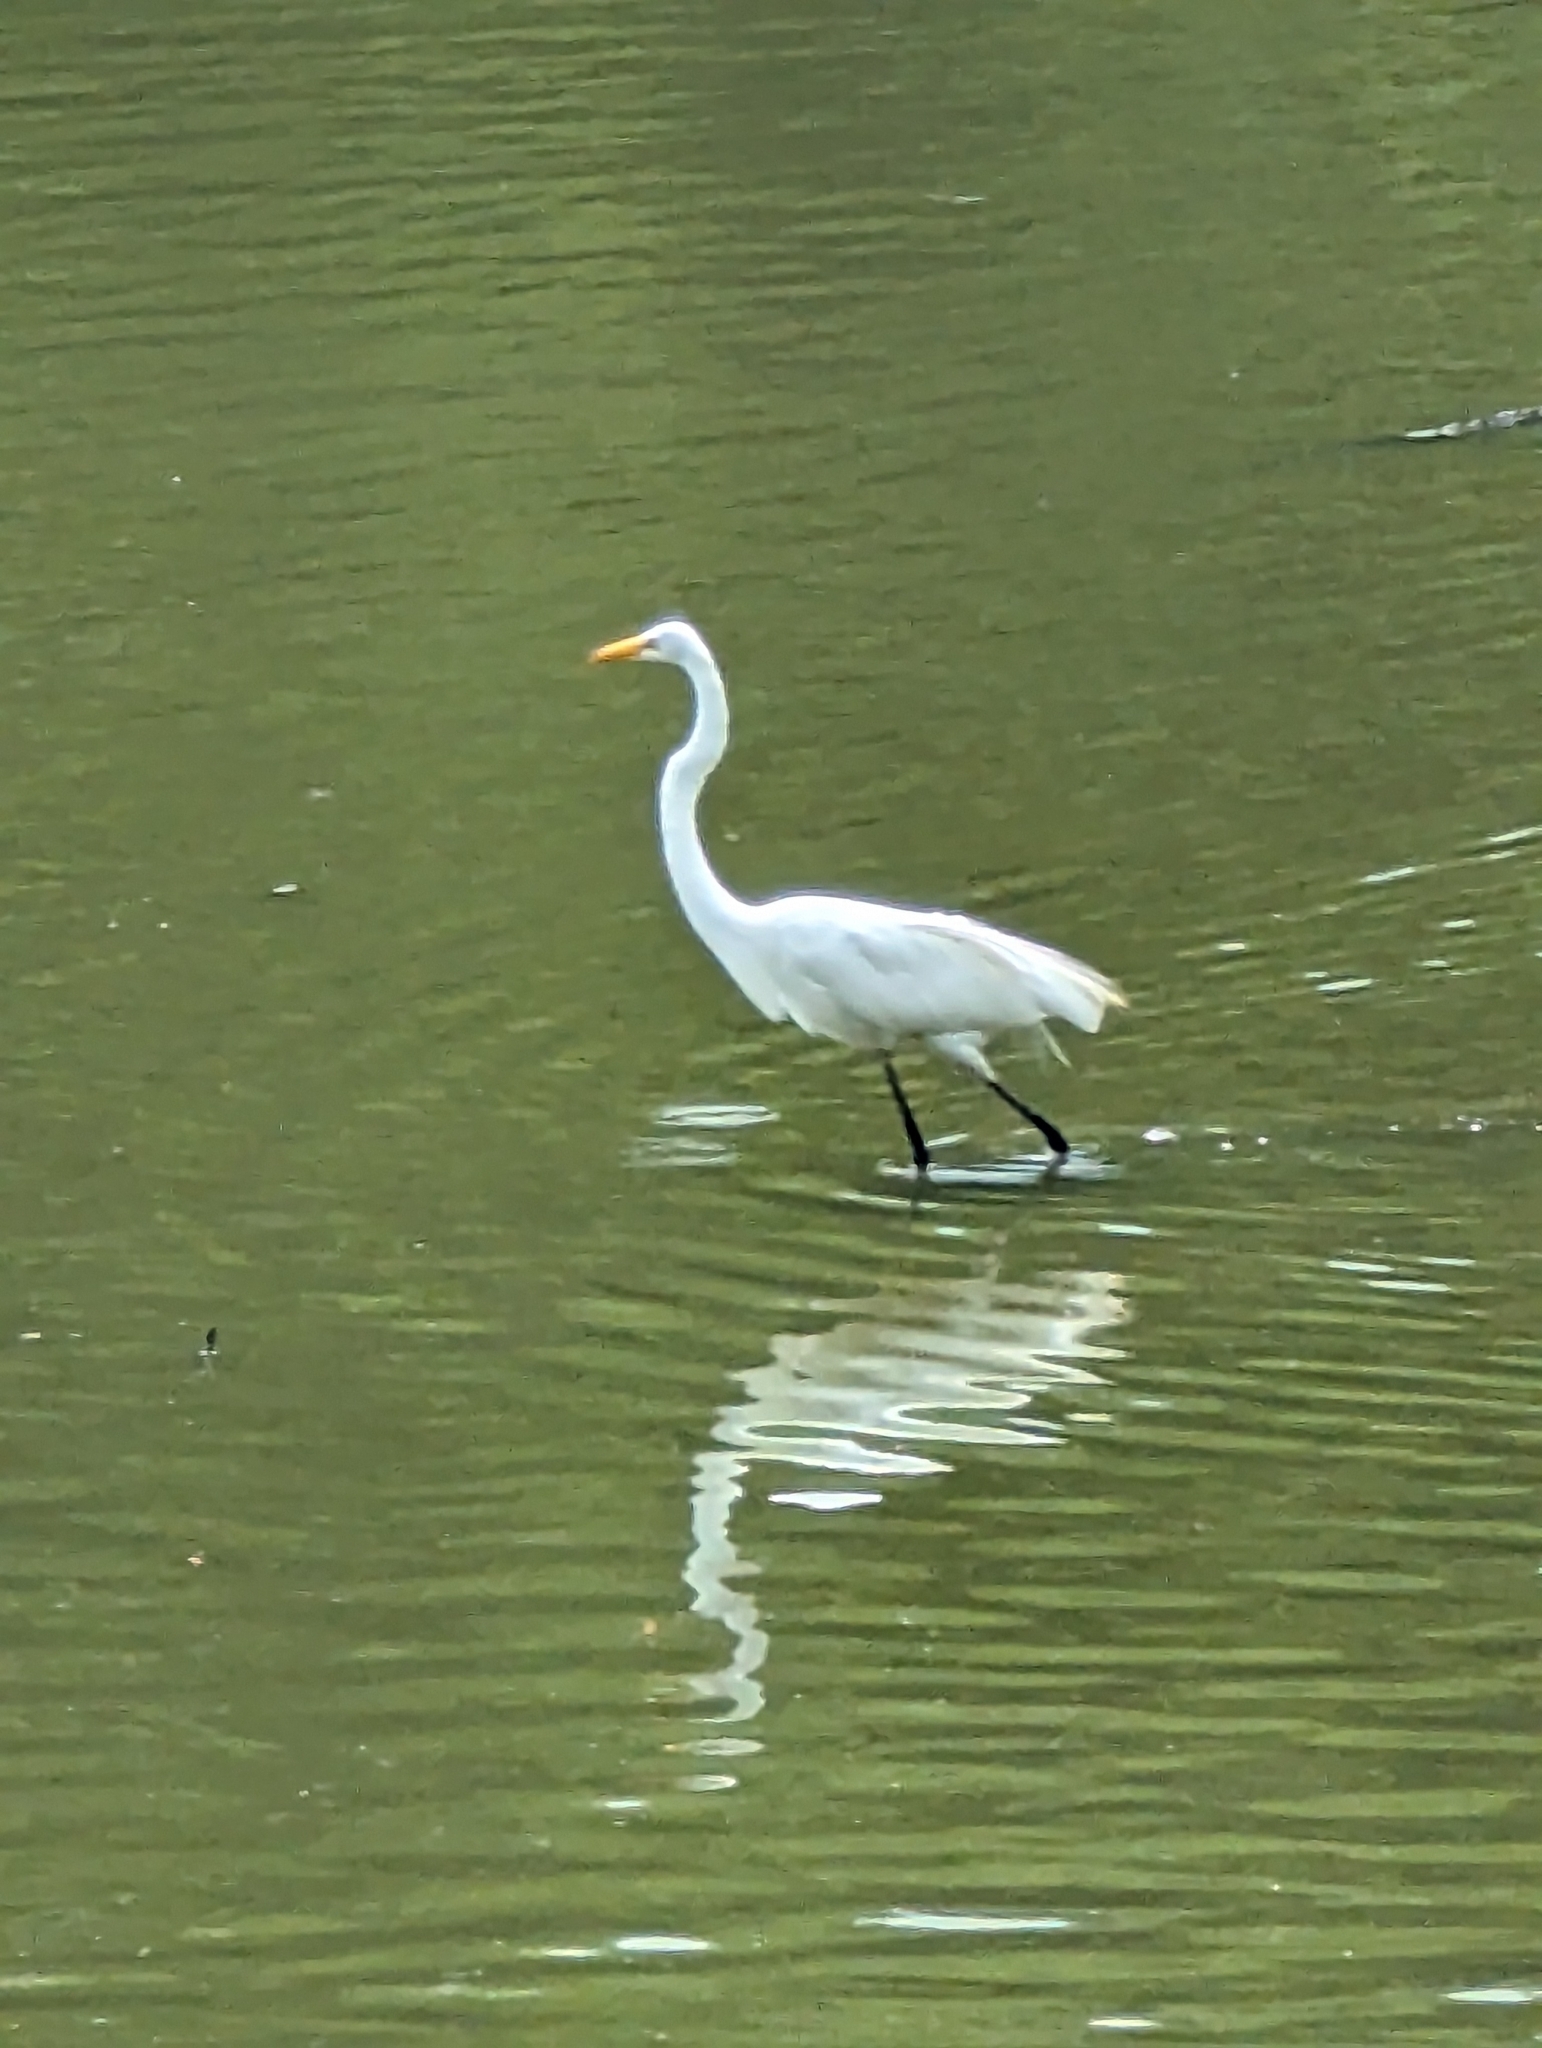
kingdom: Animalia
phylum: Chordata
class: Aves
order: Pelecaniformes
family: Ardeidae
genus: Ardea
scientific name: Ardea alba
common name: Great egret
